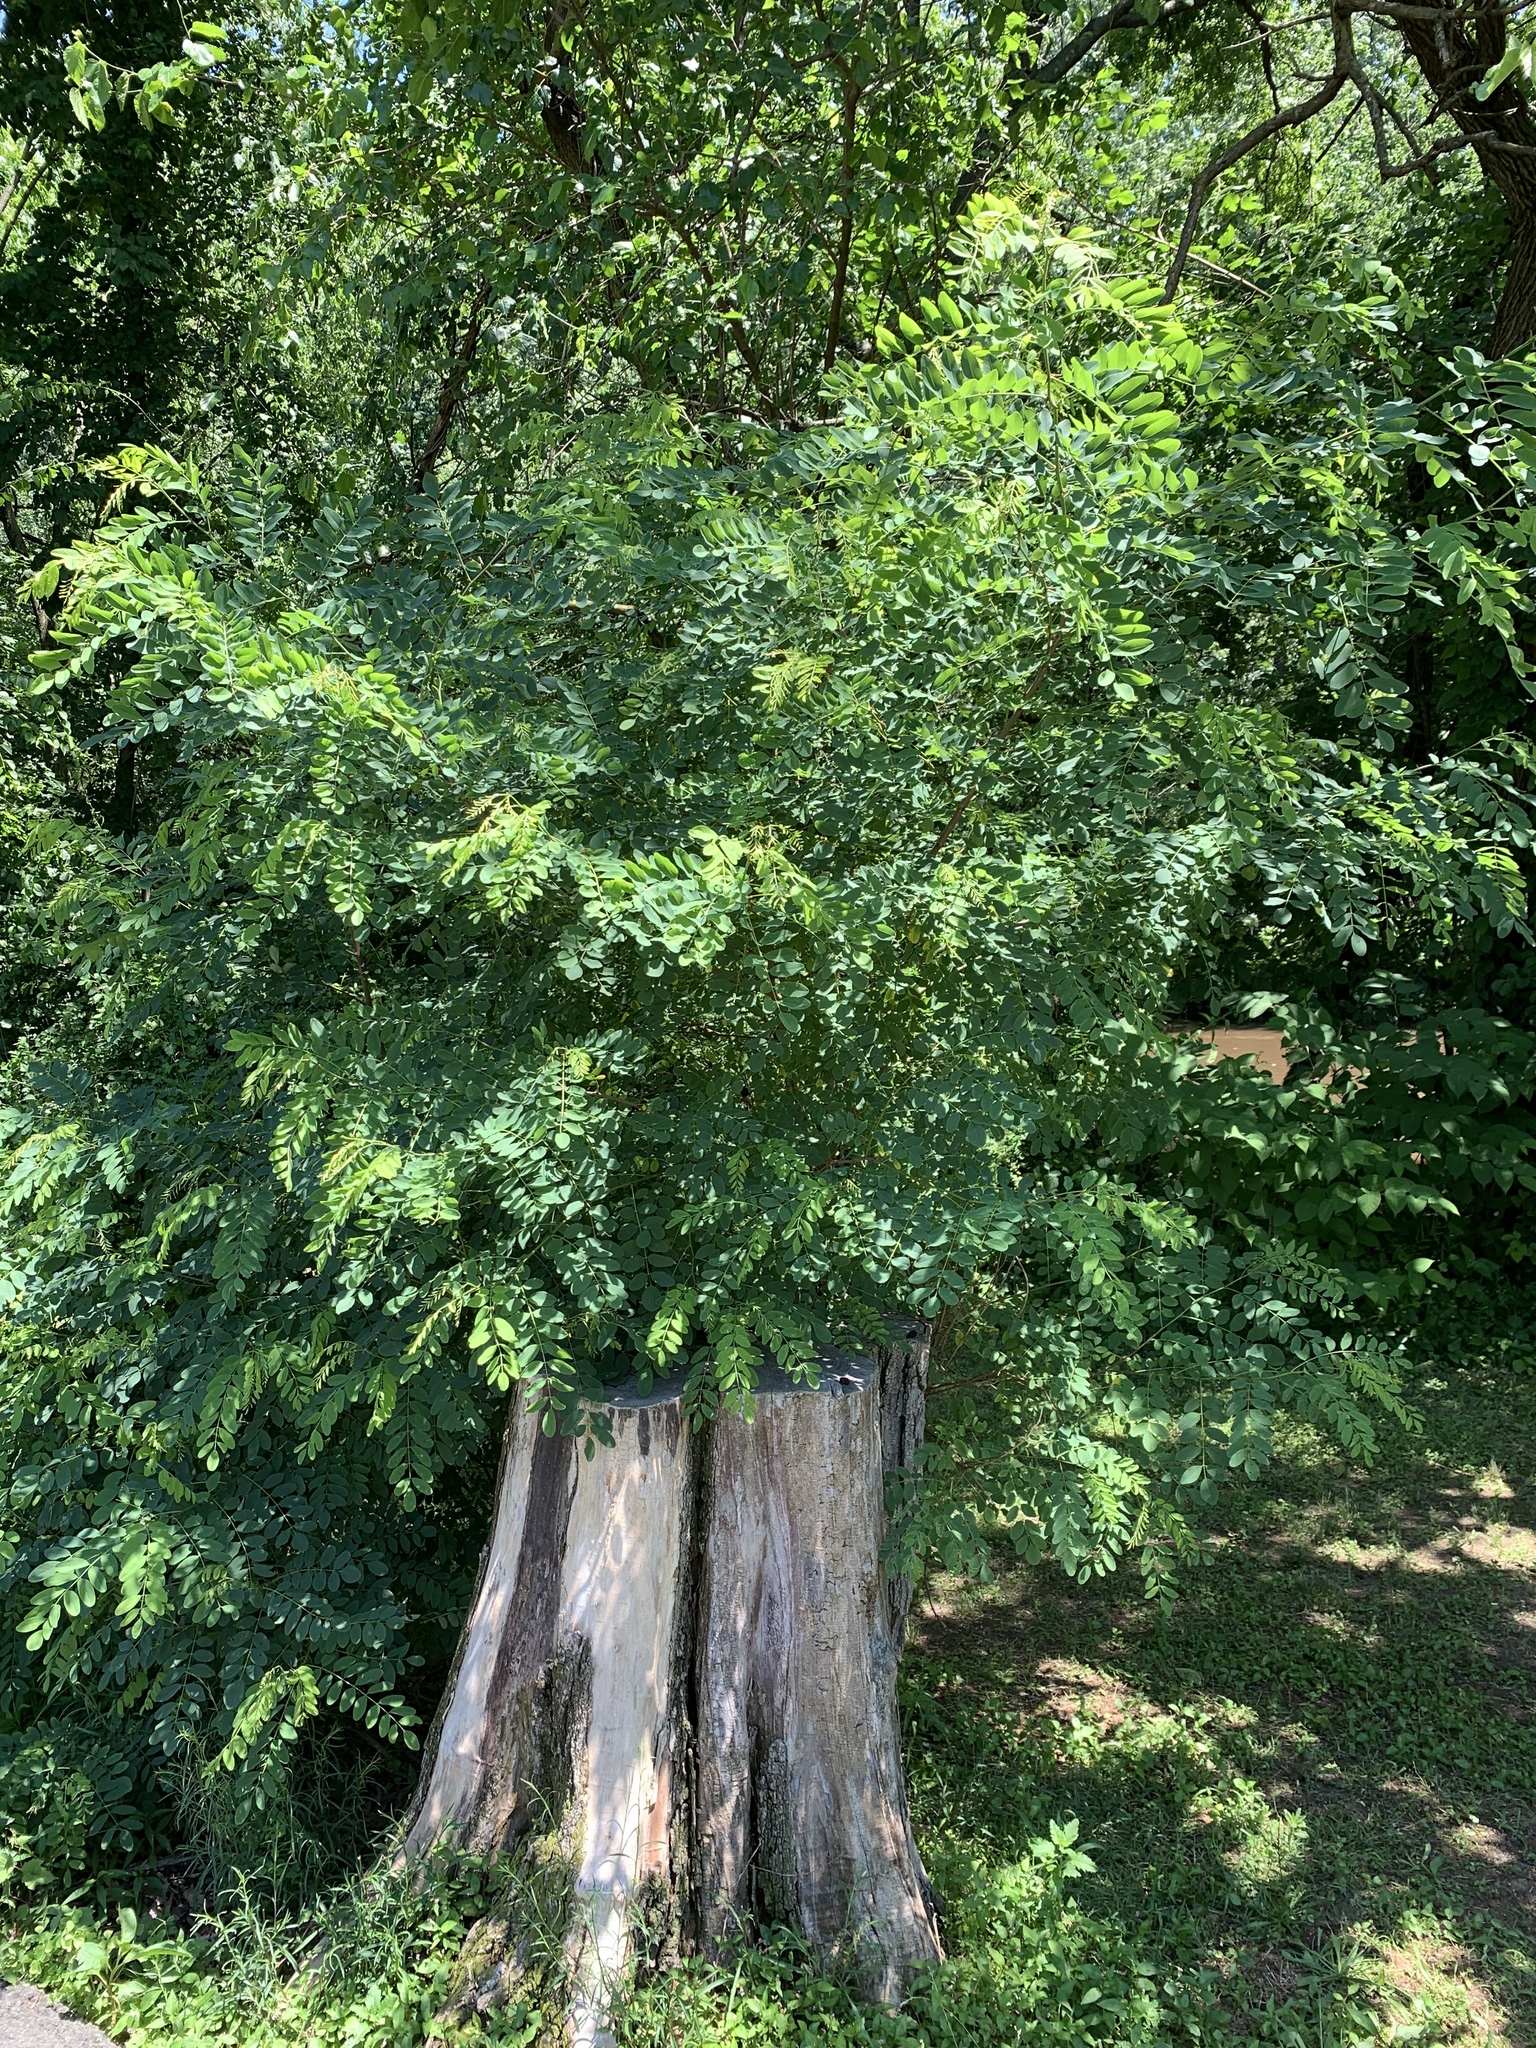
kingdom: Plantae
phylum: Tracheophyta
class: Magnoliopsida
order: Fabales
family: Fabaceae
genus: Robinia
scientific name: Robinia pseudoacacia
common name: Black locust
